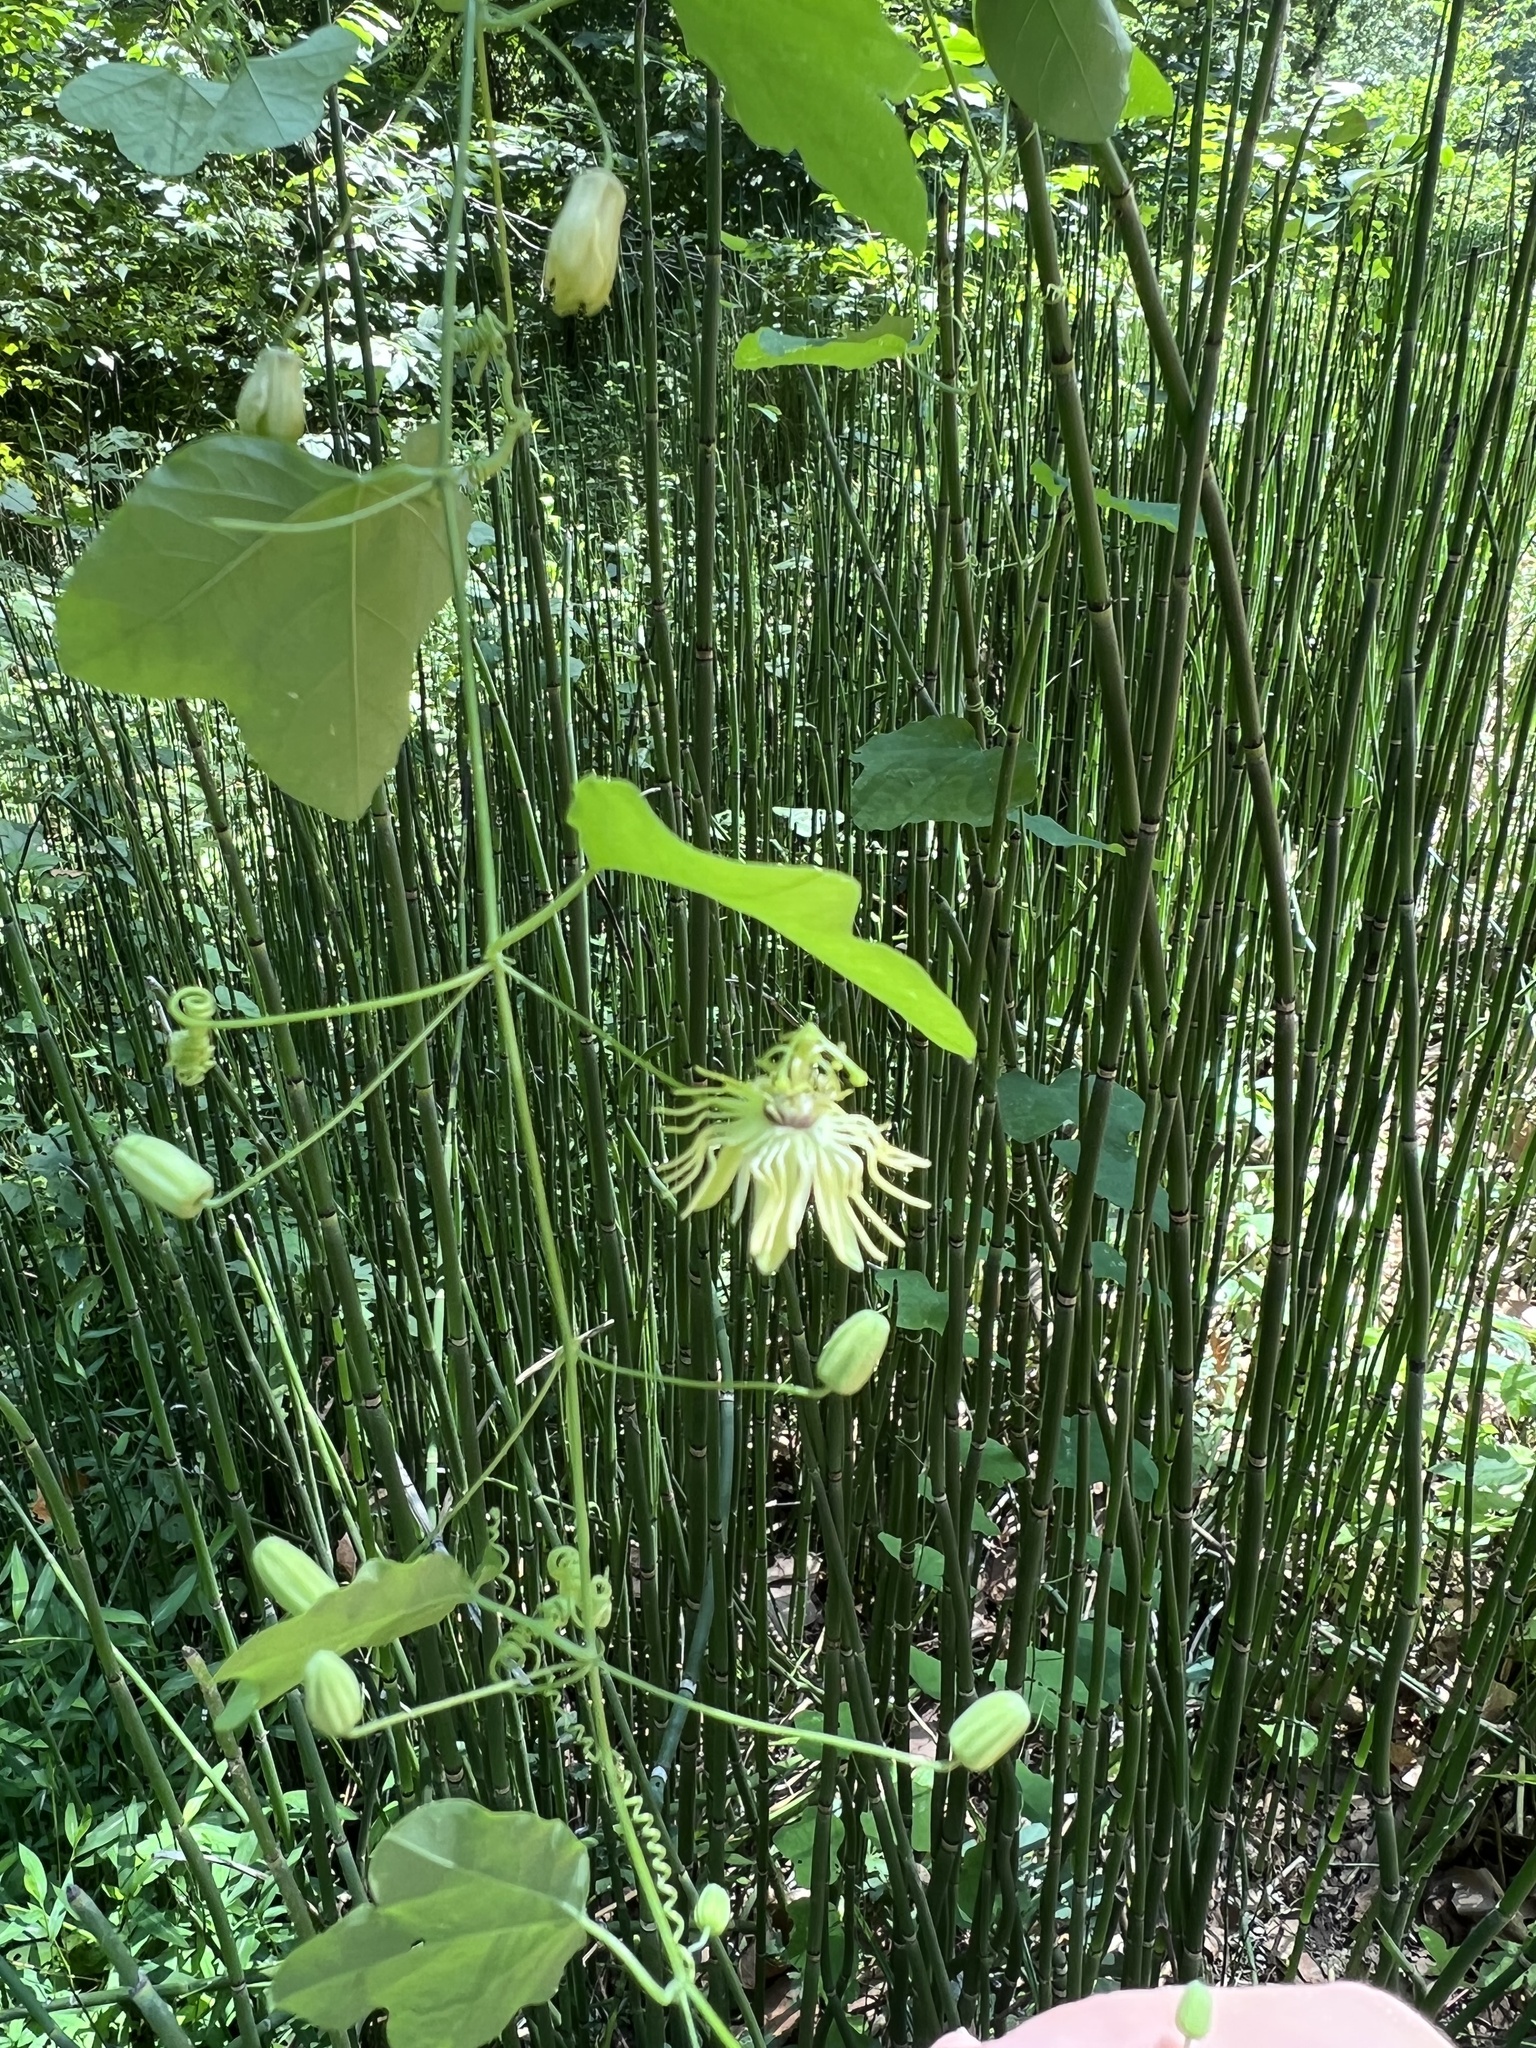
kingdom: Plantae
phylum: Tracheophyta
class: Magnoliopsida
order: Malpighiales
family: Passifloraceae
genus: Passiflora
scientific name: Passiflora lutea
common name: Yellow passionflower
